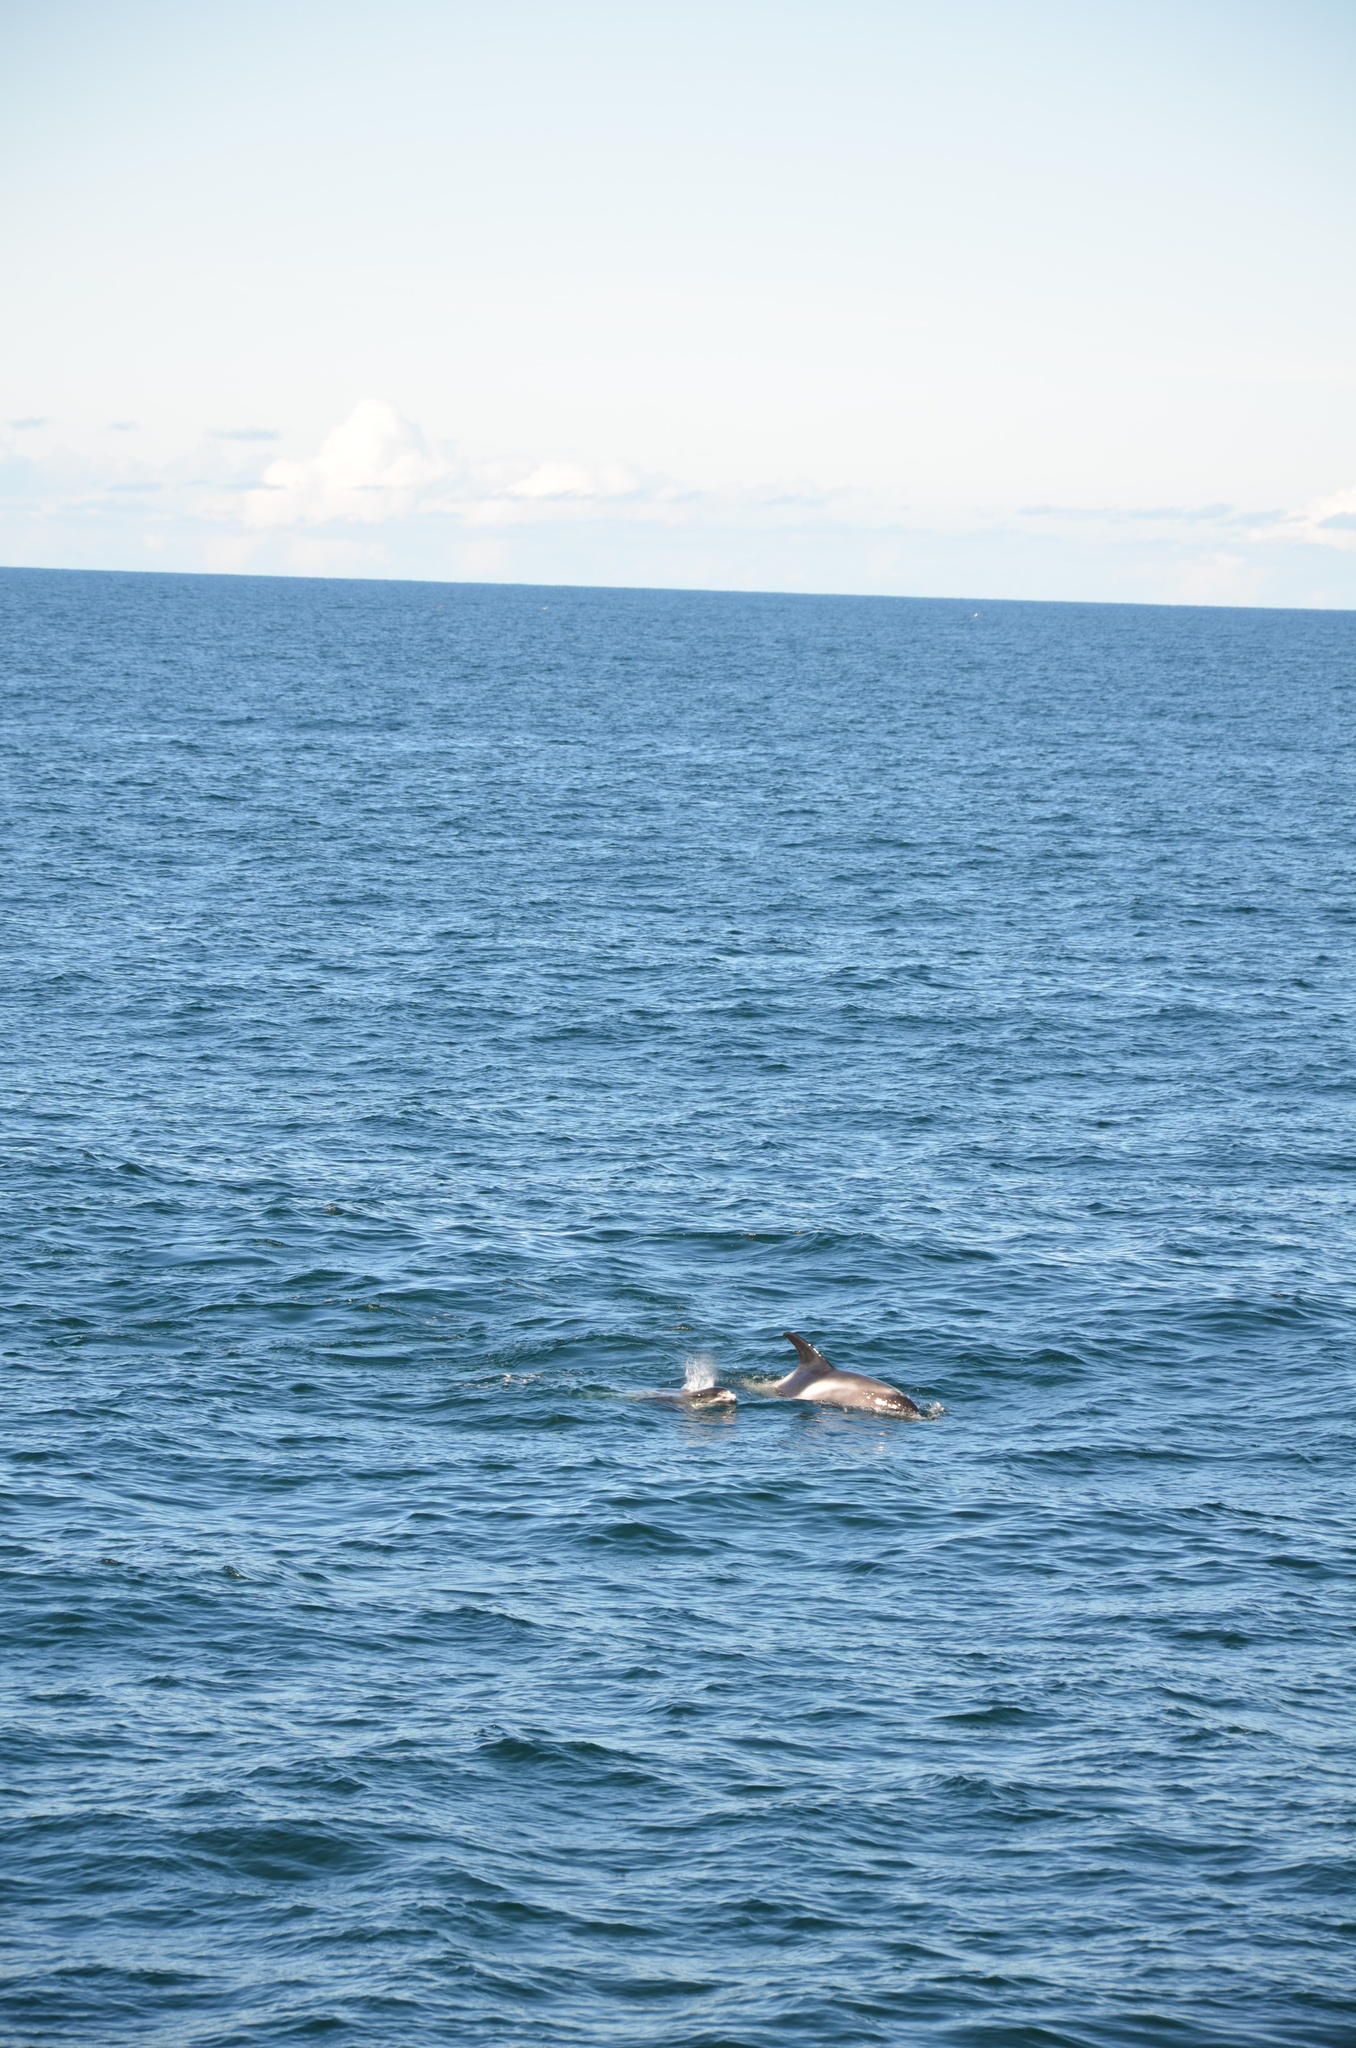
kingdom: Animalia
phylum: Chordata
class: Mammalia
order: Cetacea
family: Delphinidae
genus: Lagenorhynchus
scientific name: Lagenorhynchus albirostris
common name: White-beaked dolphin
